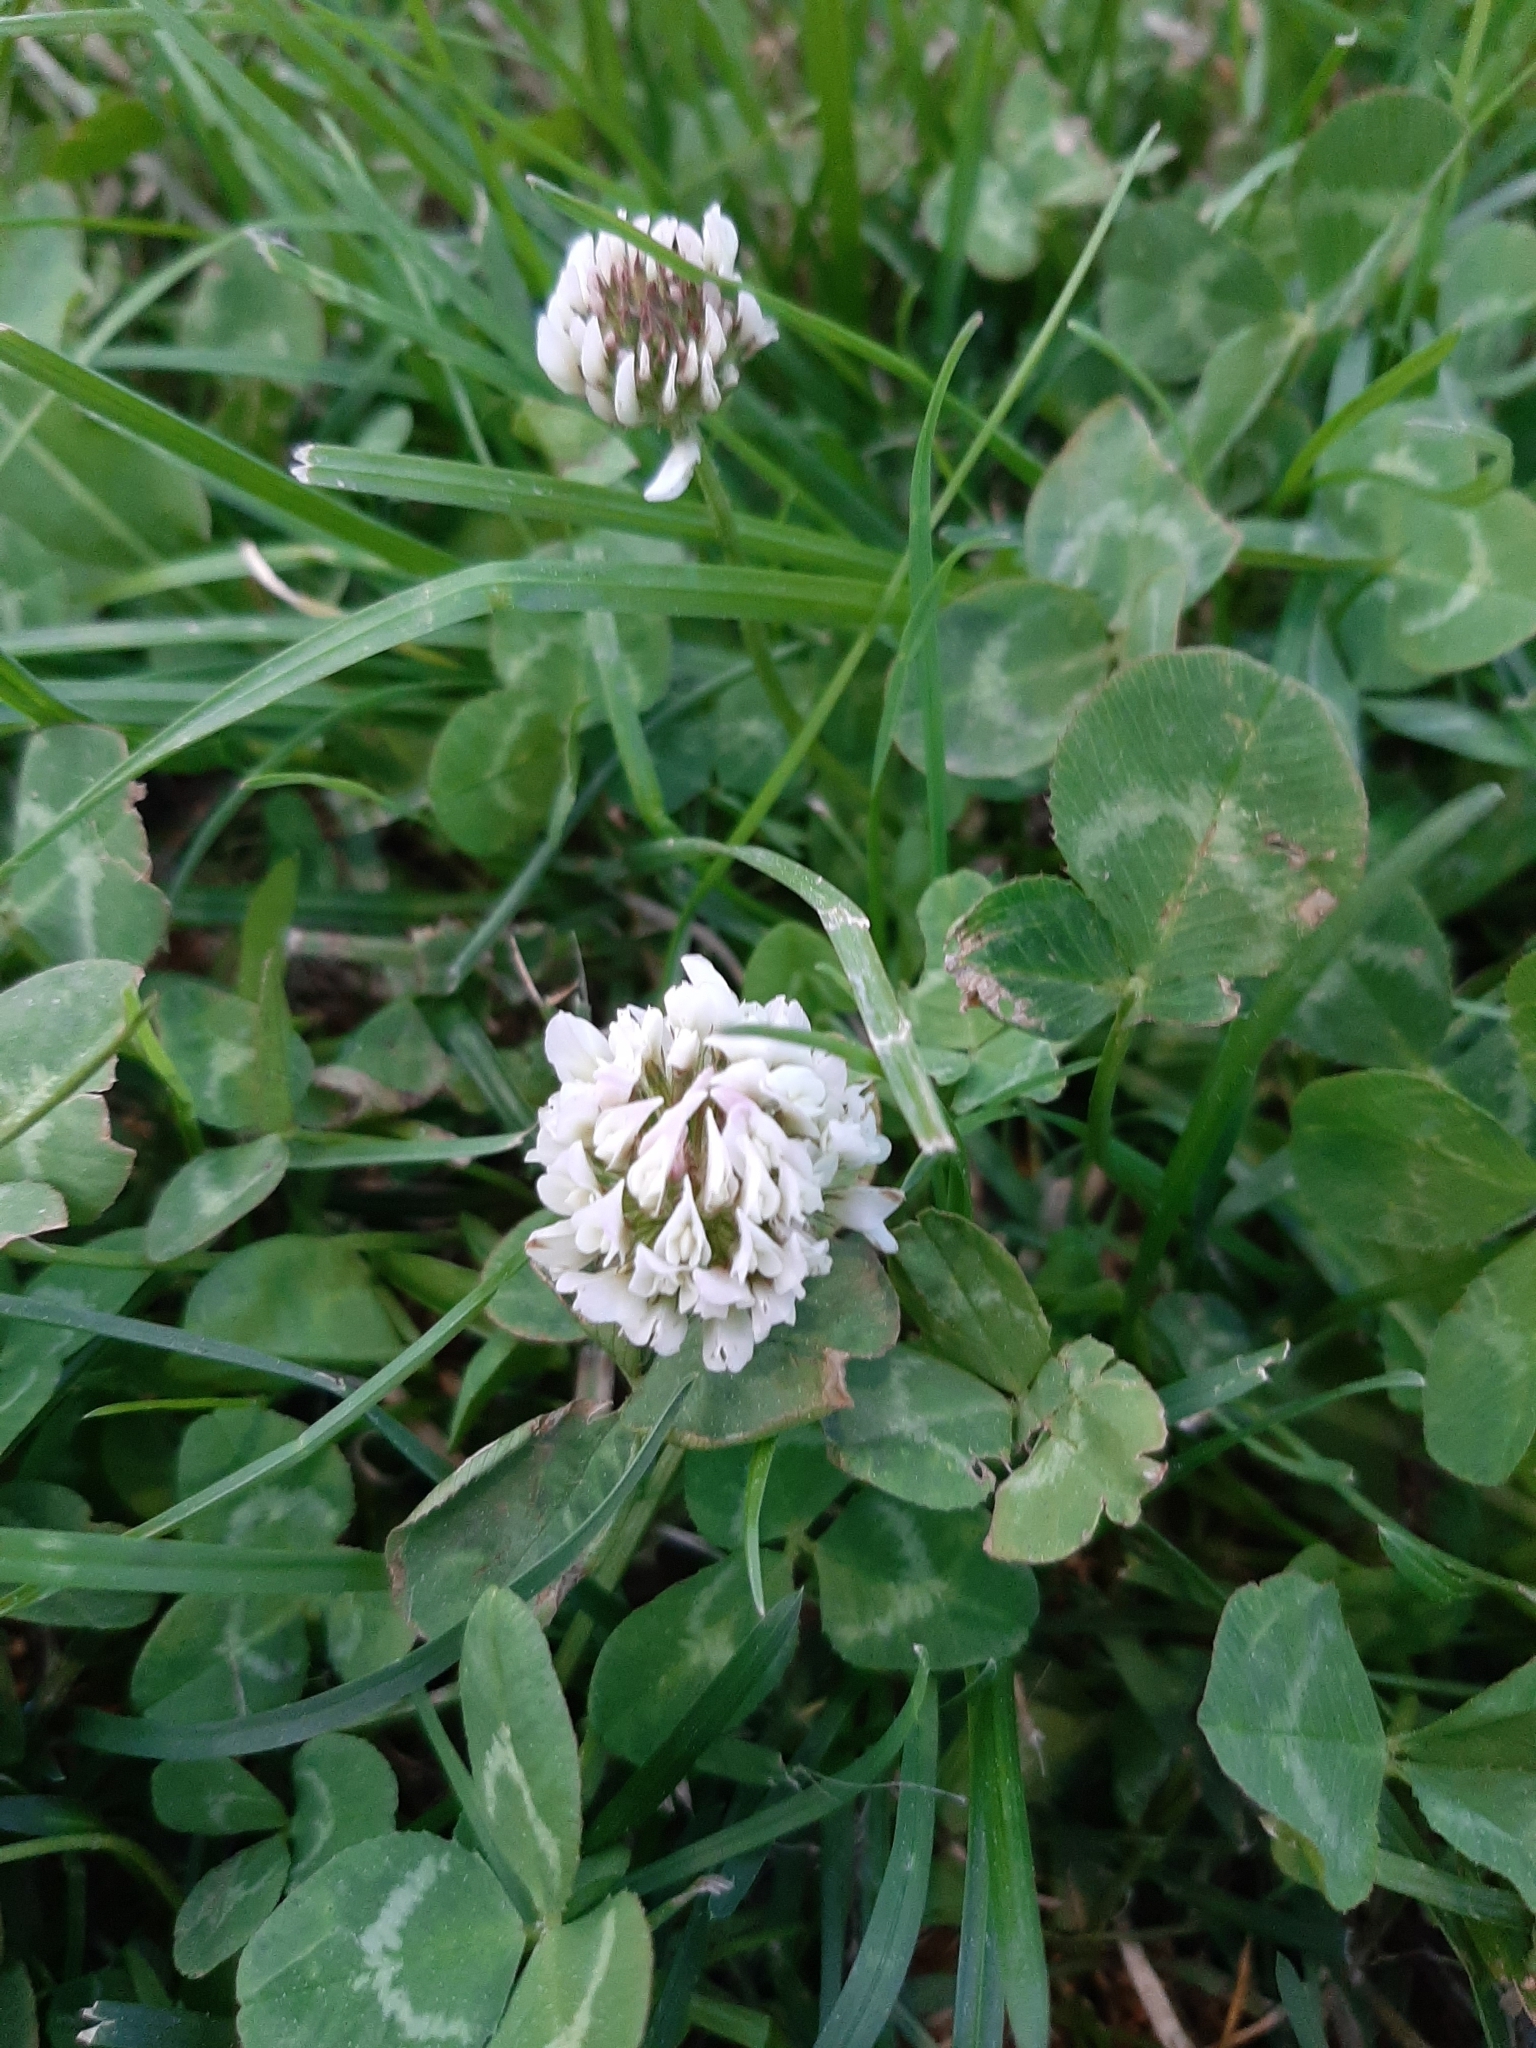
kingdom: Plantae
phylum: Tracheophyta
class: Magnoliopsida
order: Fabales
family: Fabaceae
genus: Trifolium
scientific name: Trifolium repens
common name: White clover
